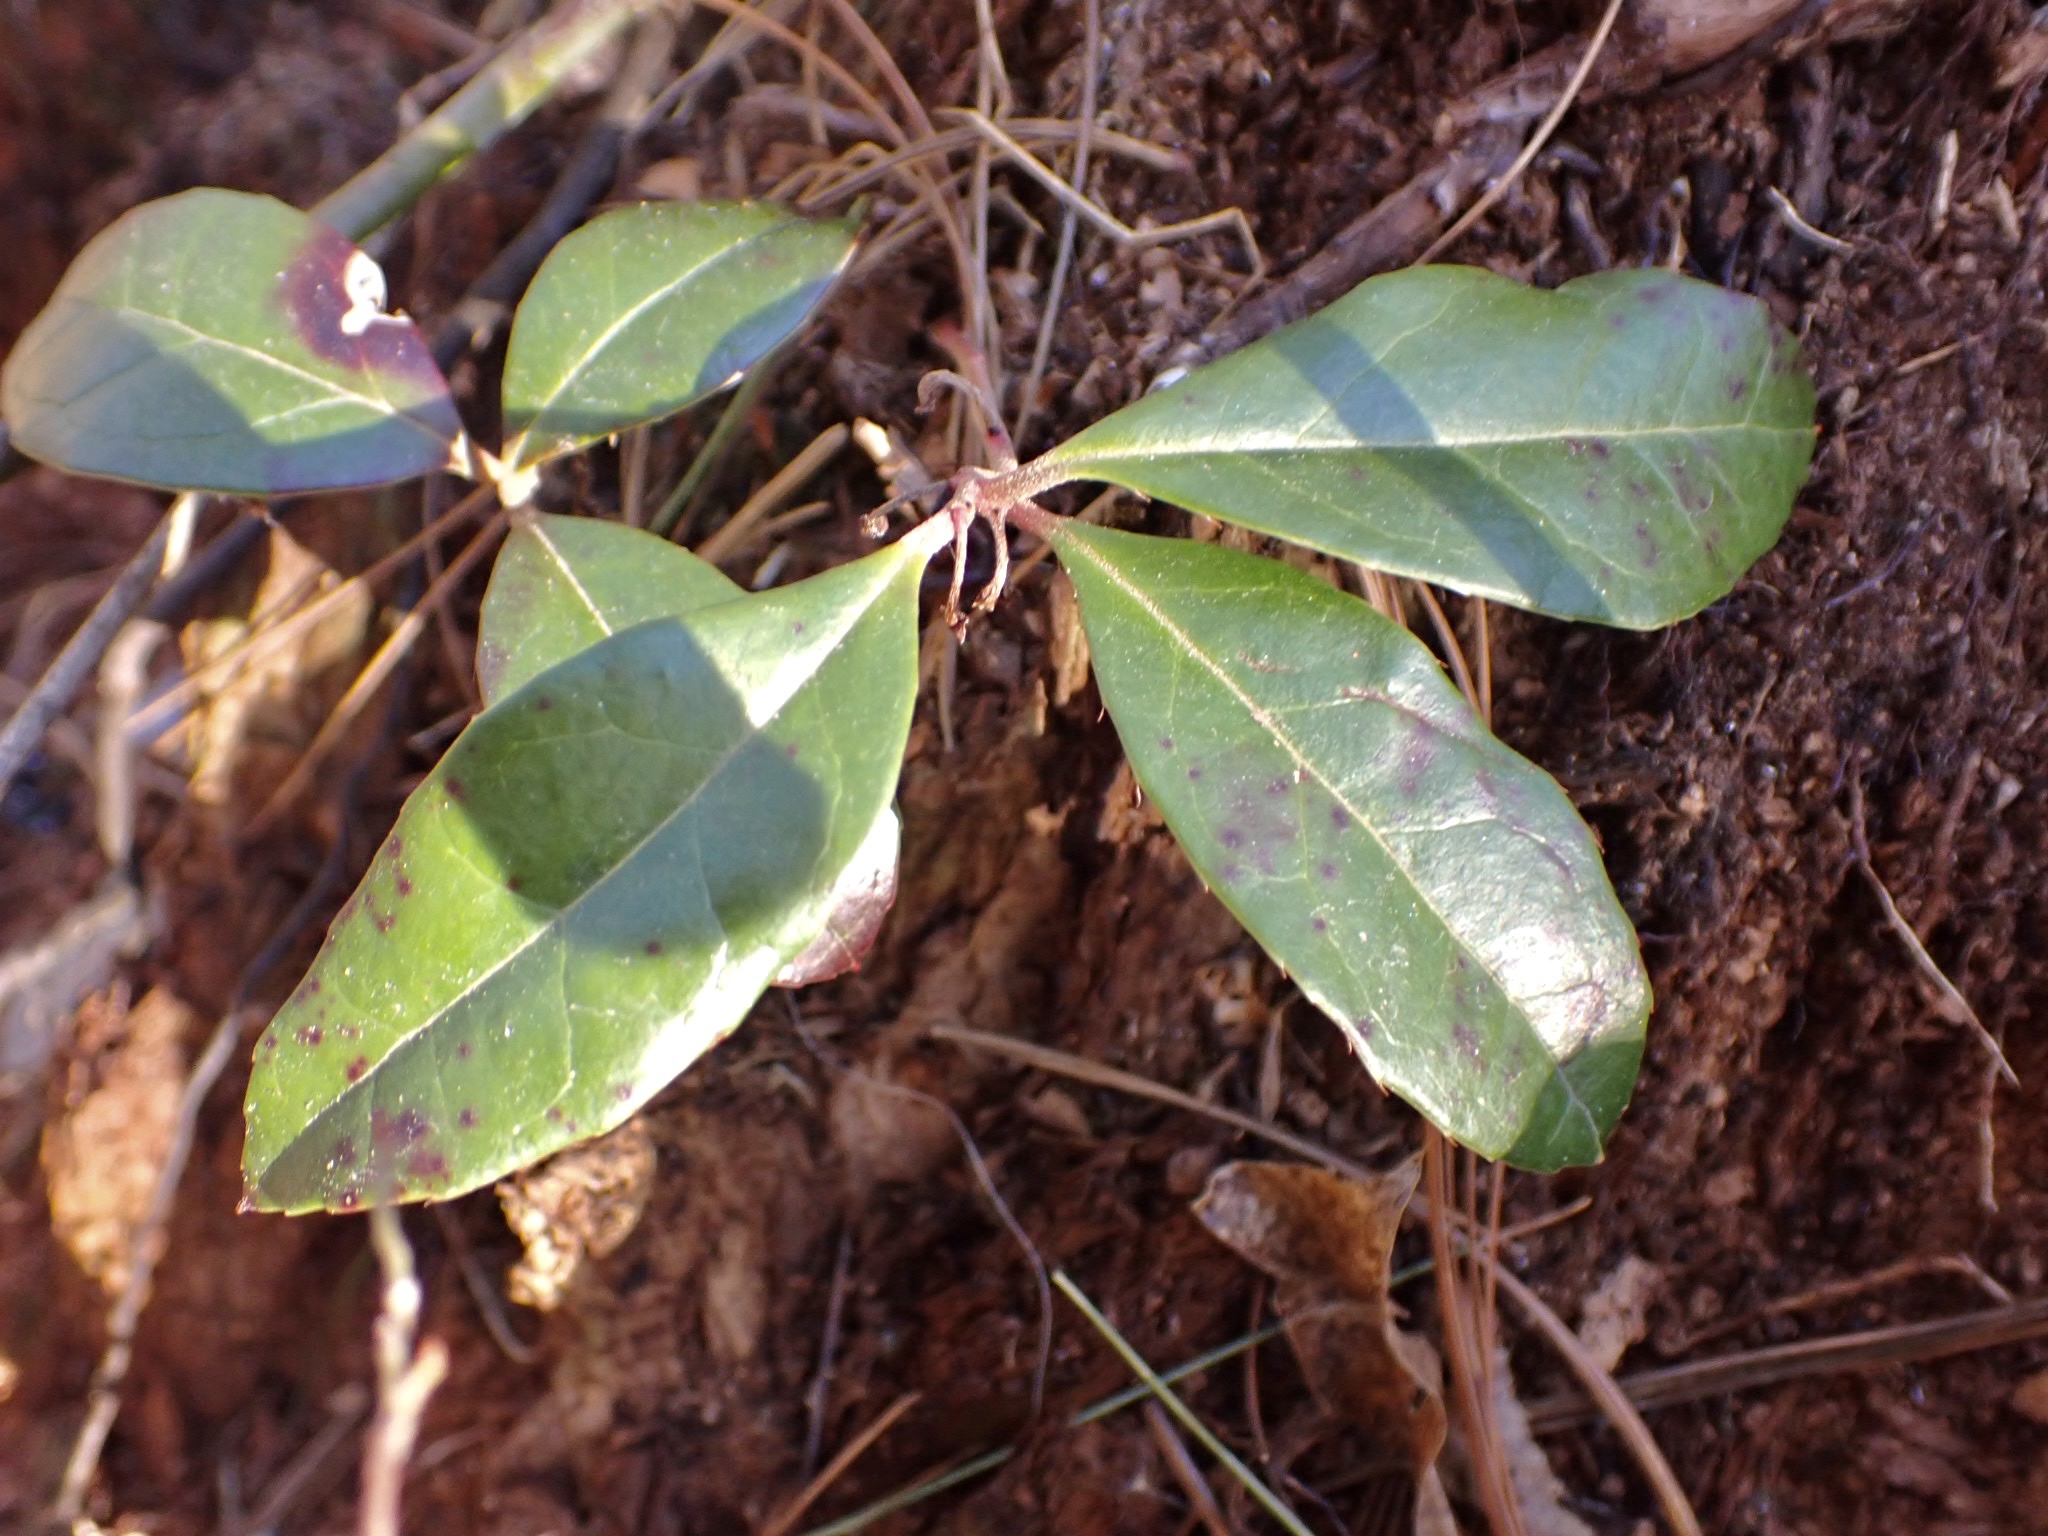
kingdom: Plantae
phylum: Tracheophyta
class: Magnoliopsida
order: Ericales
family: Ericaceae
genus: Gaultheria
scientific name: Gaultheria procumbens
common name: Checkerberry
